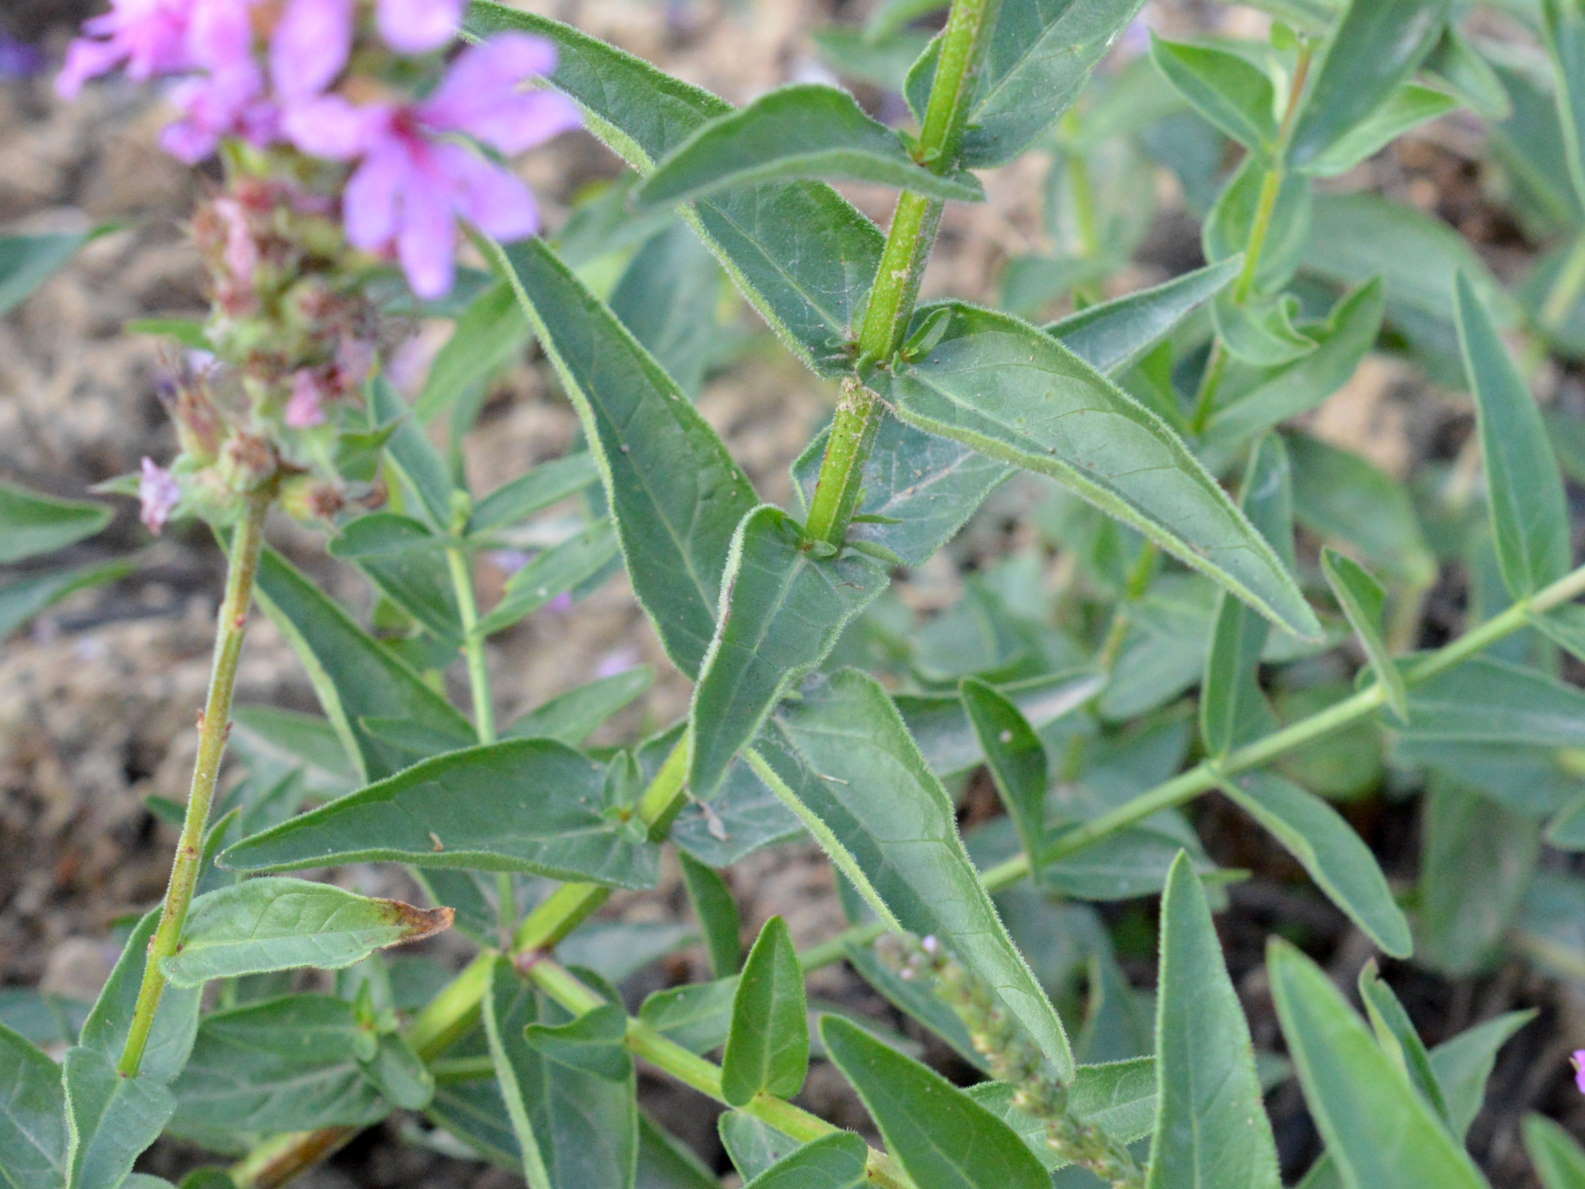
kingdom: Plantae
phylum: Tracheophyta
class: Magnoliopsida
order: Myrtales
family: Lythraceae
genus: Lythrum
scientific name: Lythrum salicaria
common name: Purple loosestrife
